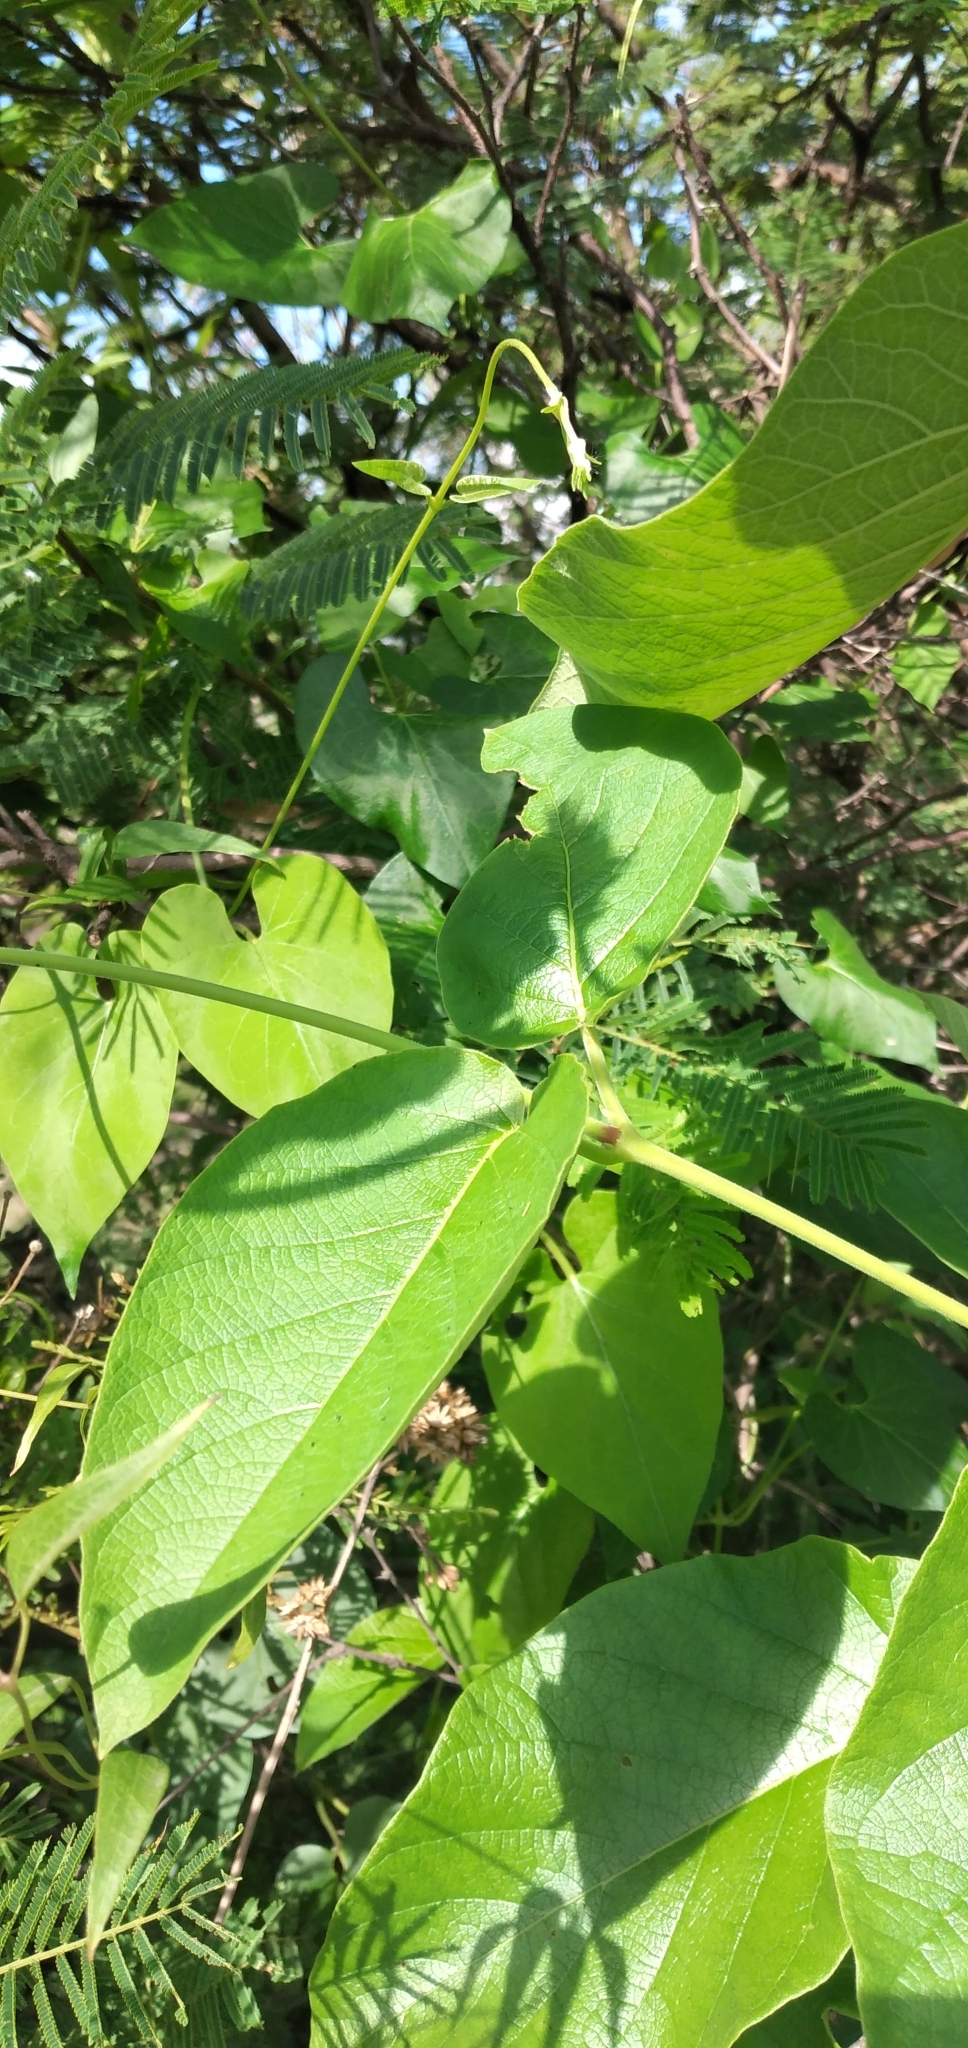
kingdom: Plantae
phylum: Tracheophyta
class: Magnoliopsida
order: Gentianales
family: Apocynaceae
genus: Mandevilla
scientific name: Mandevilla pentlandiana
